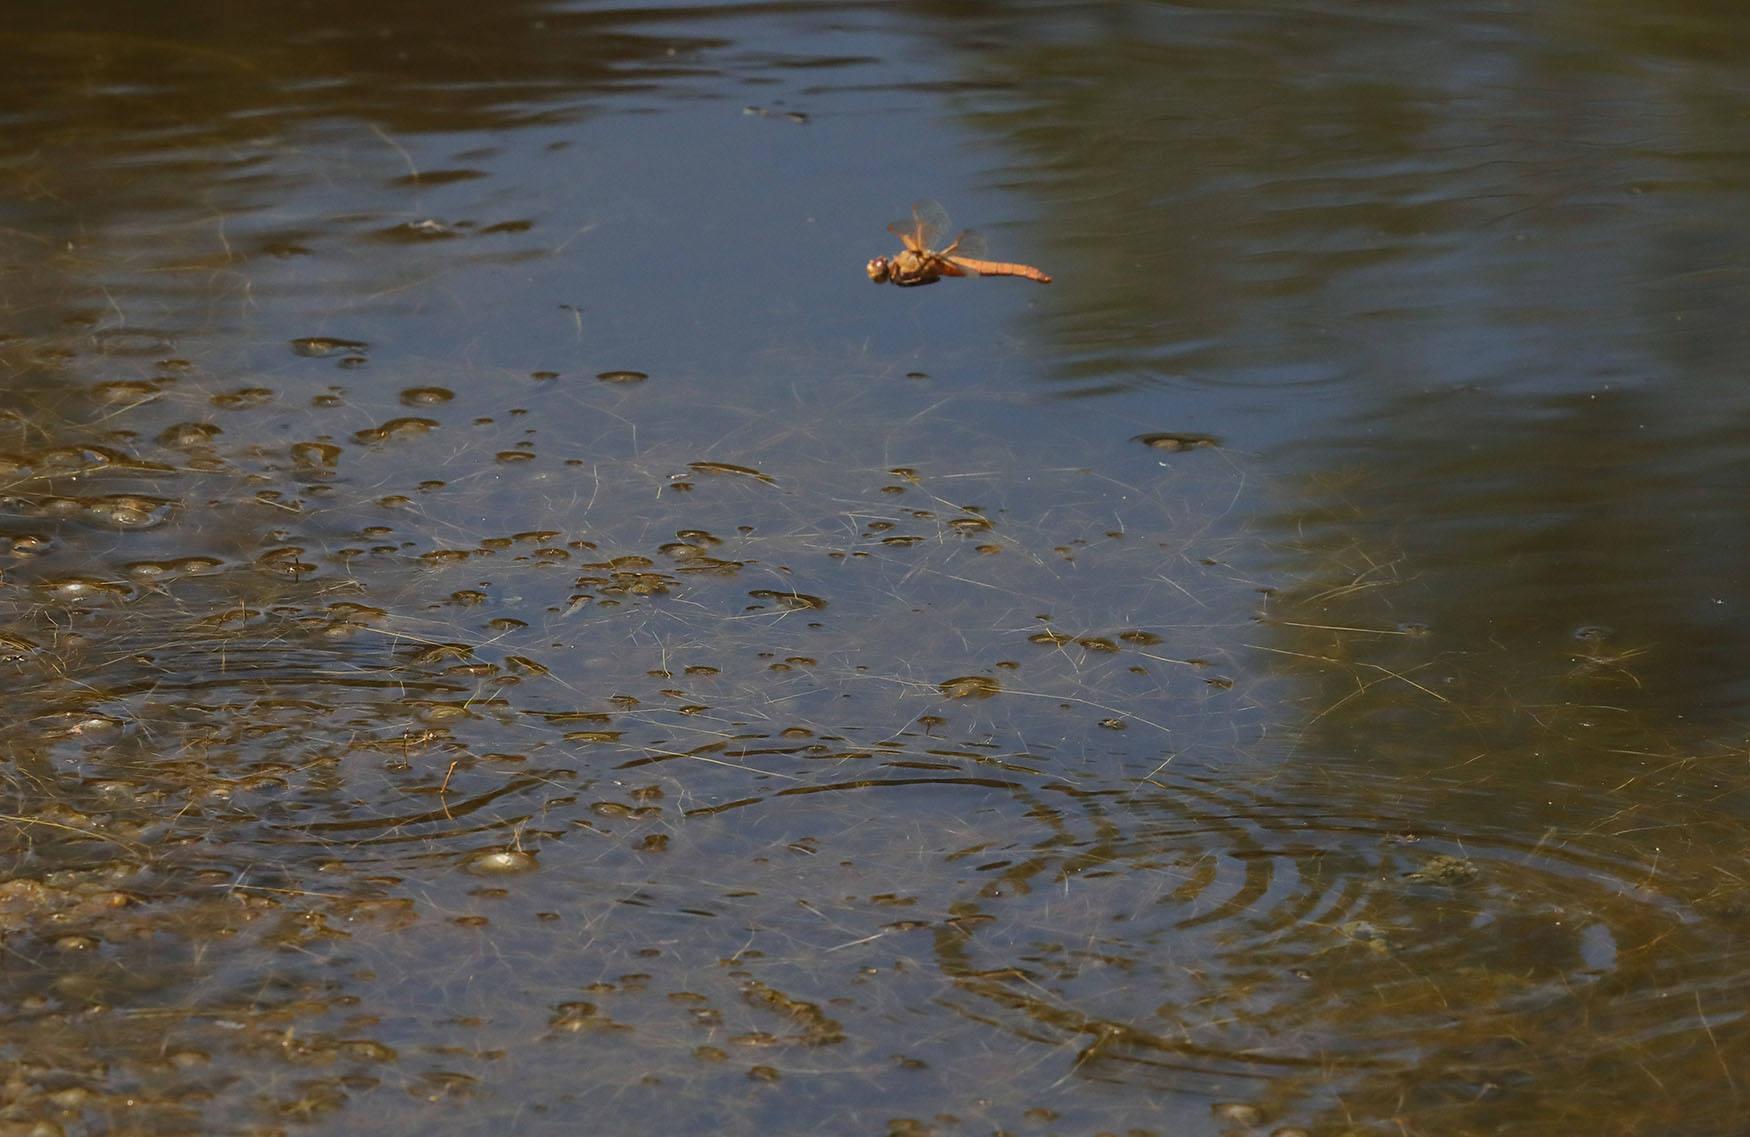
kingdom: Animalia
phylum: Arthropoda
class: Insecta
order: Odonata
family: Libellulidae
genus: Libellula
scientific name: Libellula saturata
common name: Flame skimmer
